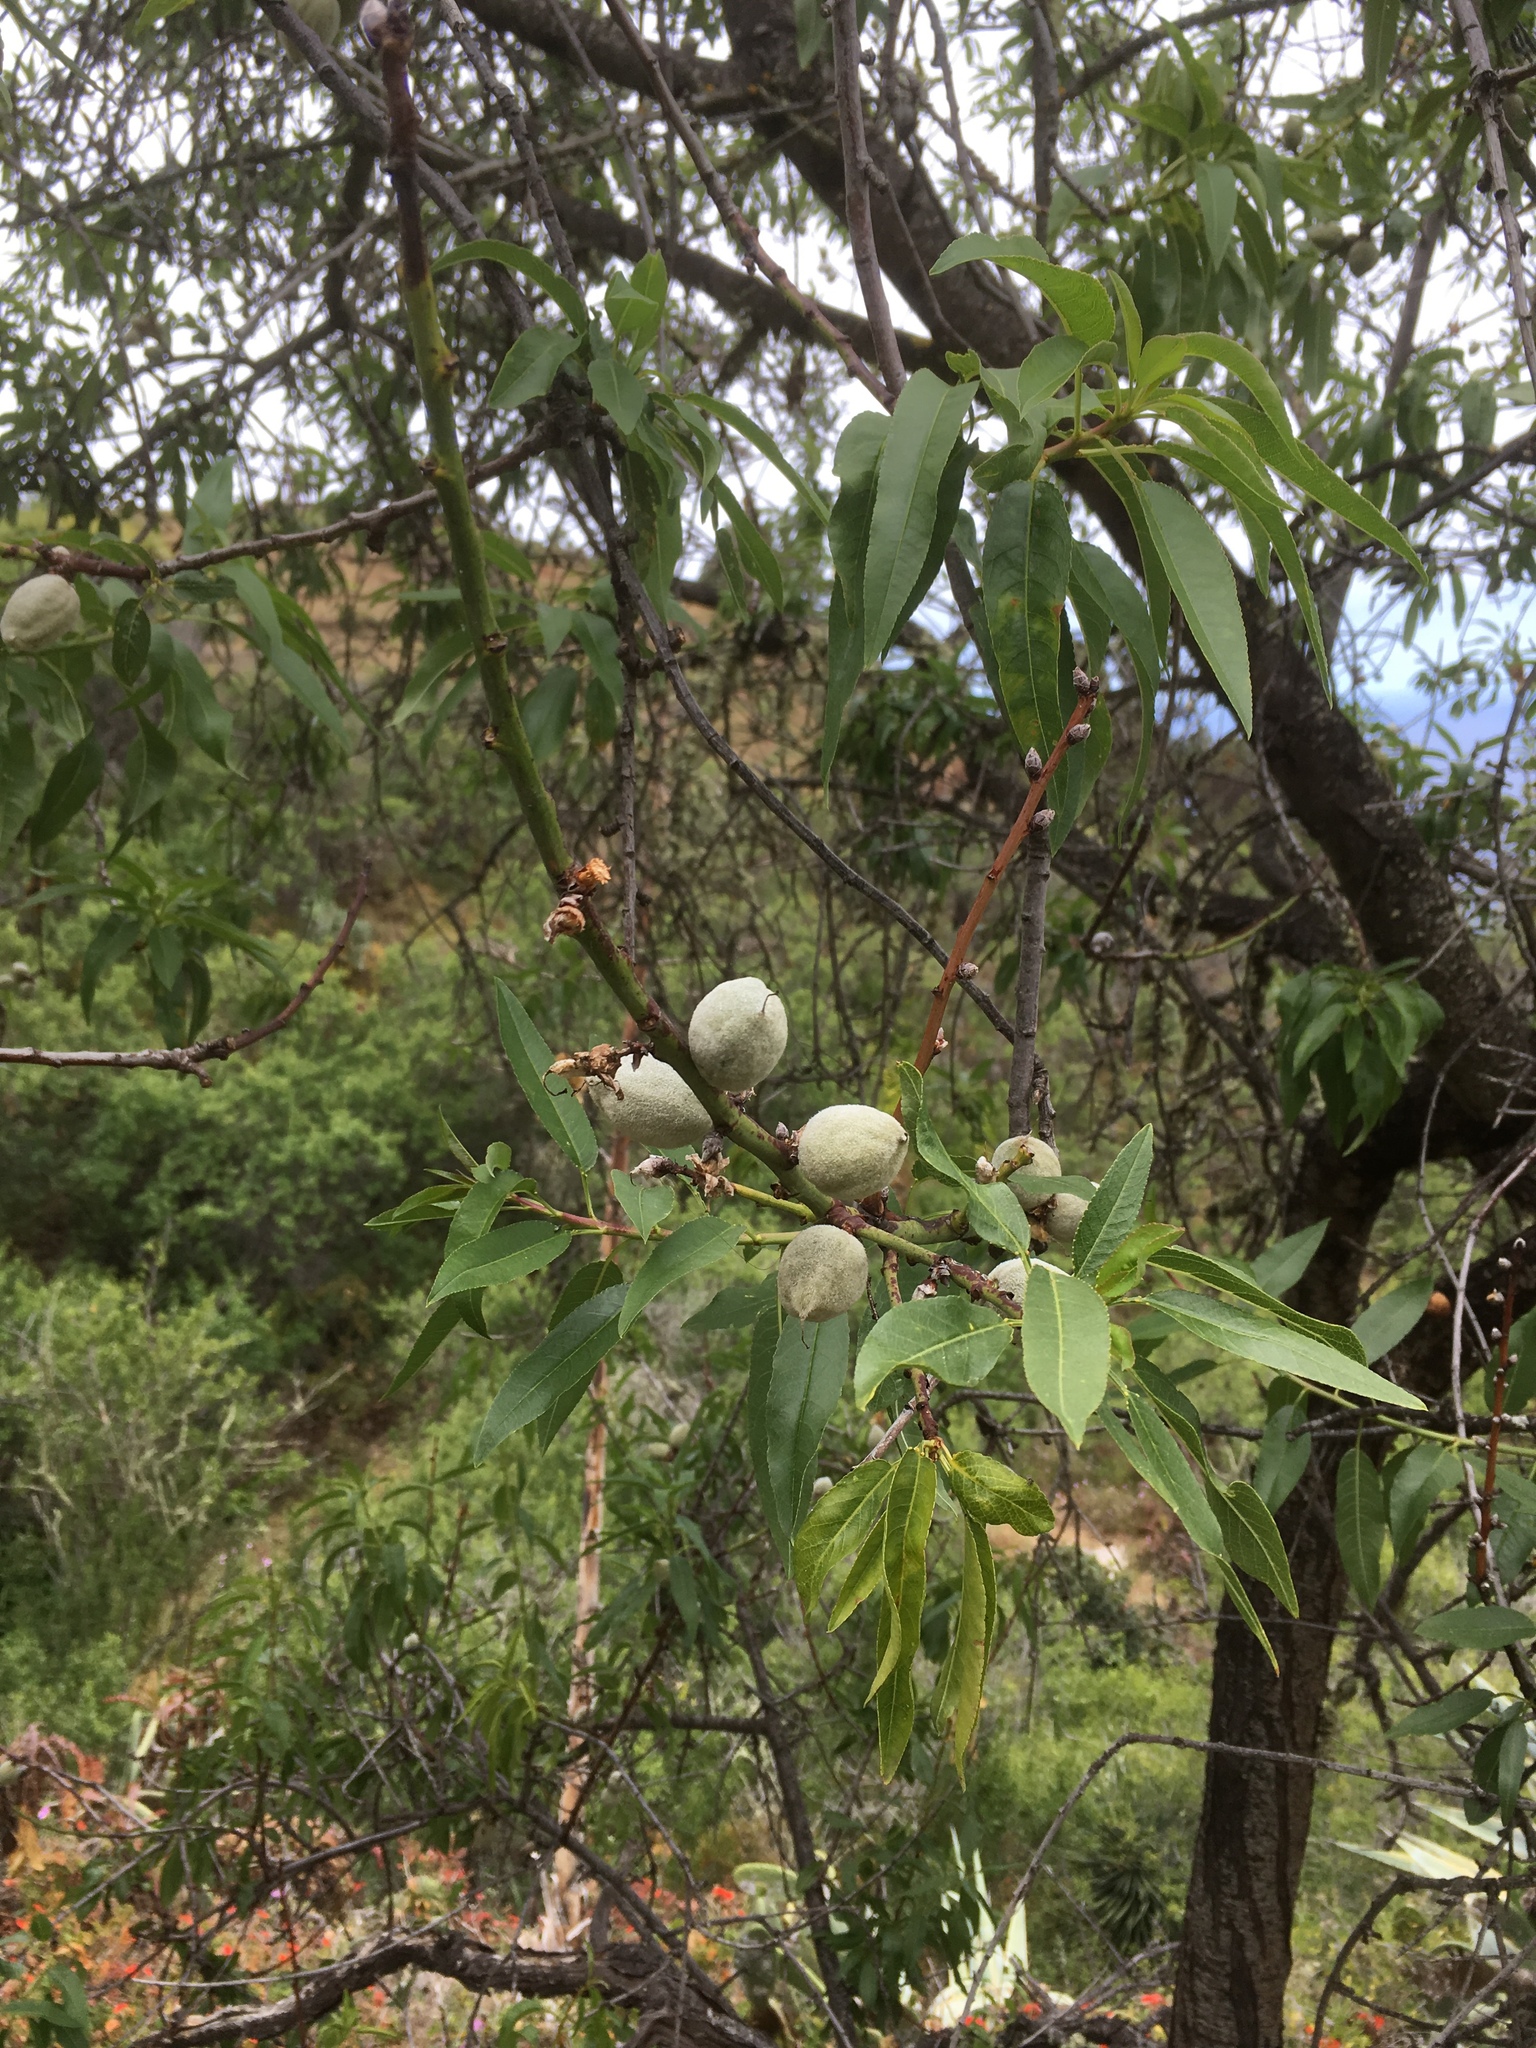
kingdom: Plantae
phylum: Tracheophyta
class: Magnoliopsida
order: Rosales
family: Rosaceae
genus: Prunus
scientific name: Prunus amygdalus
